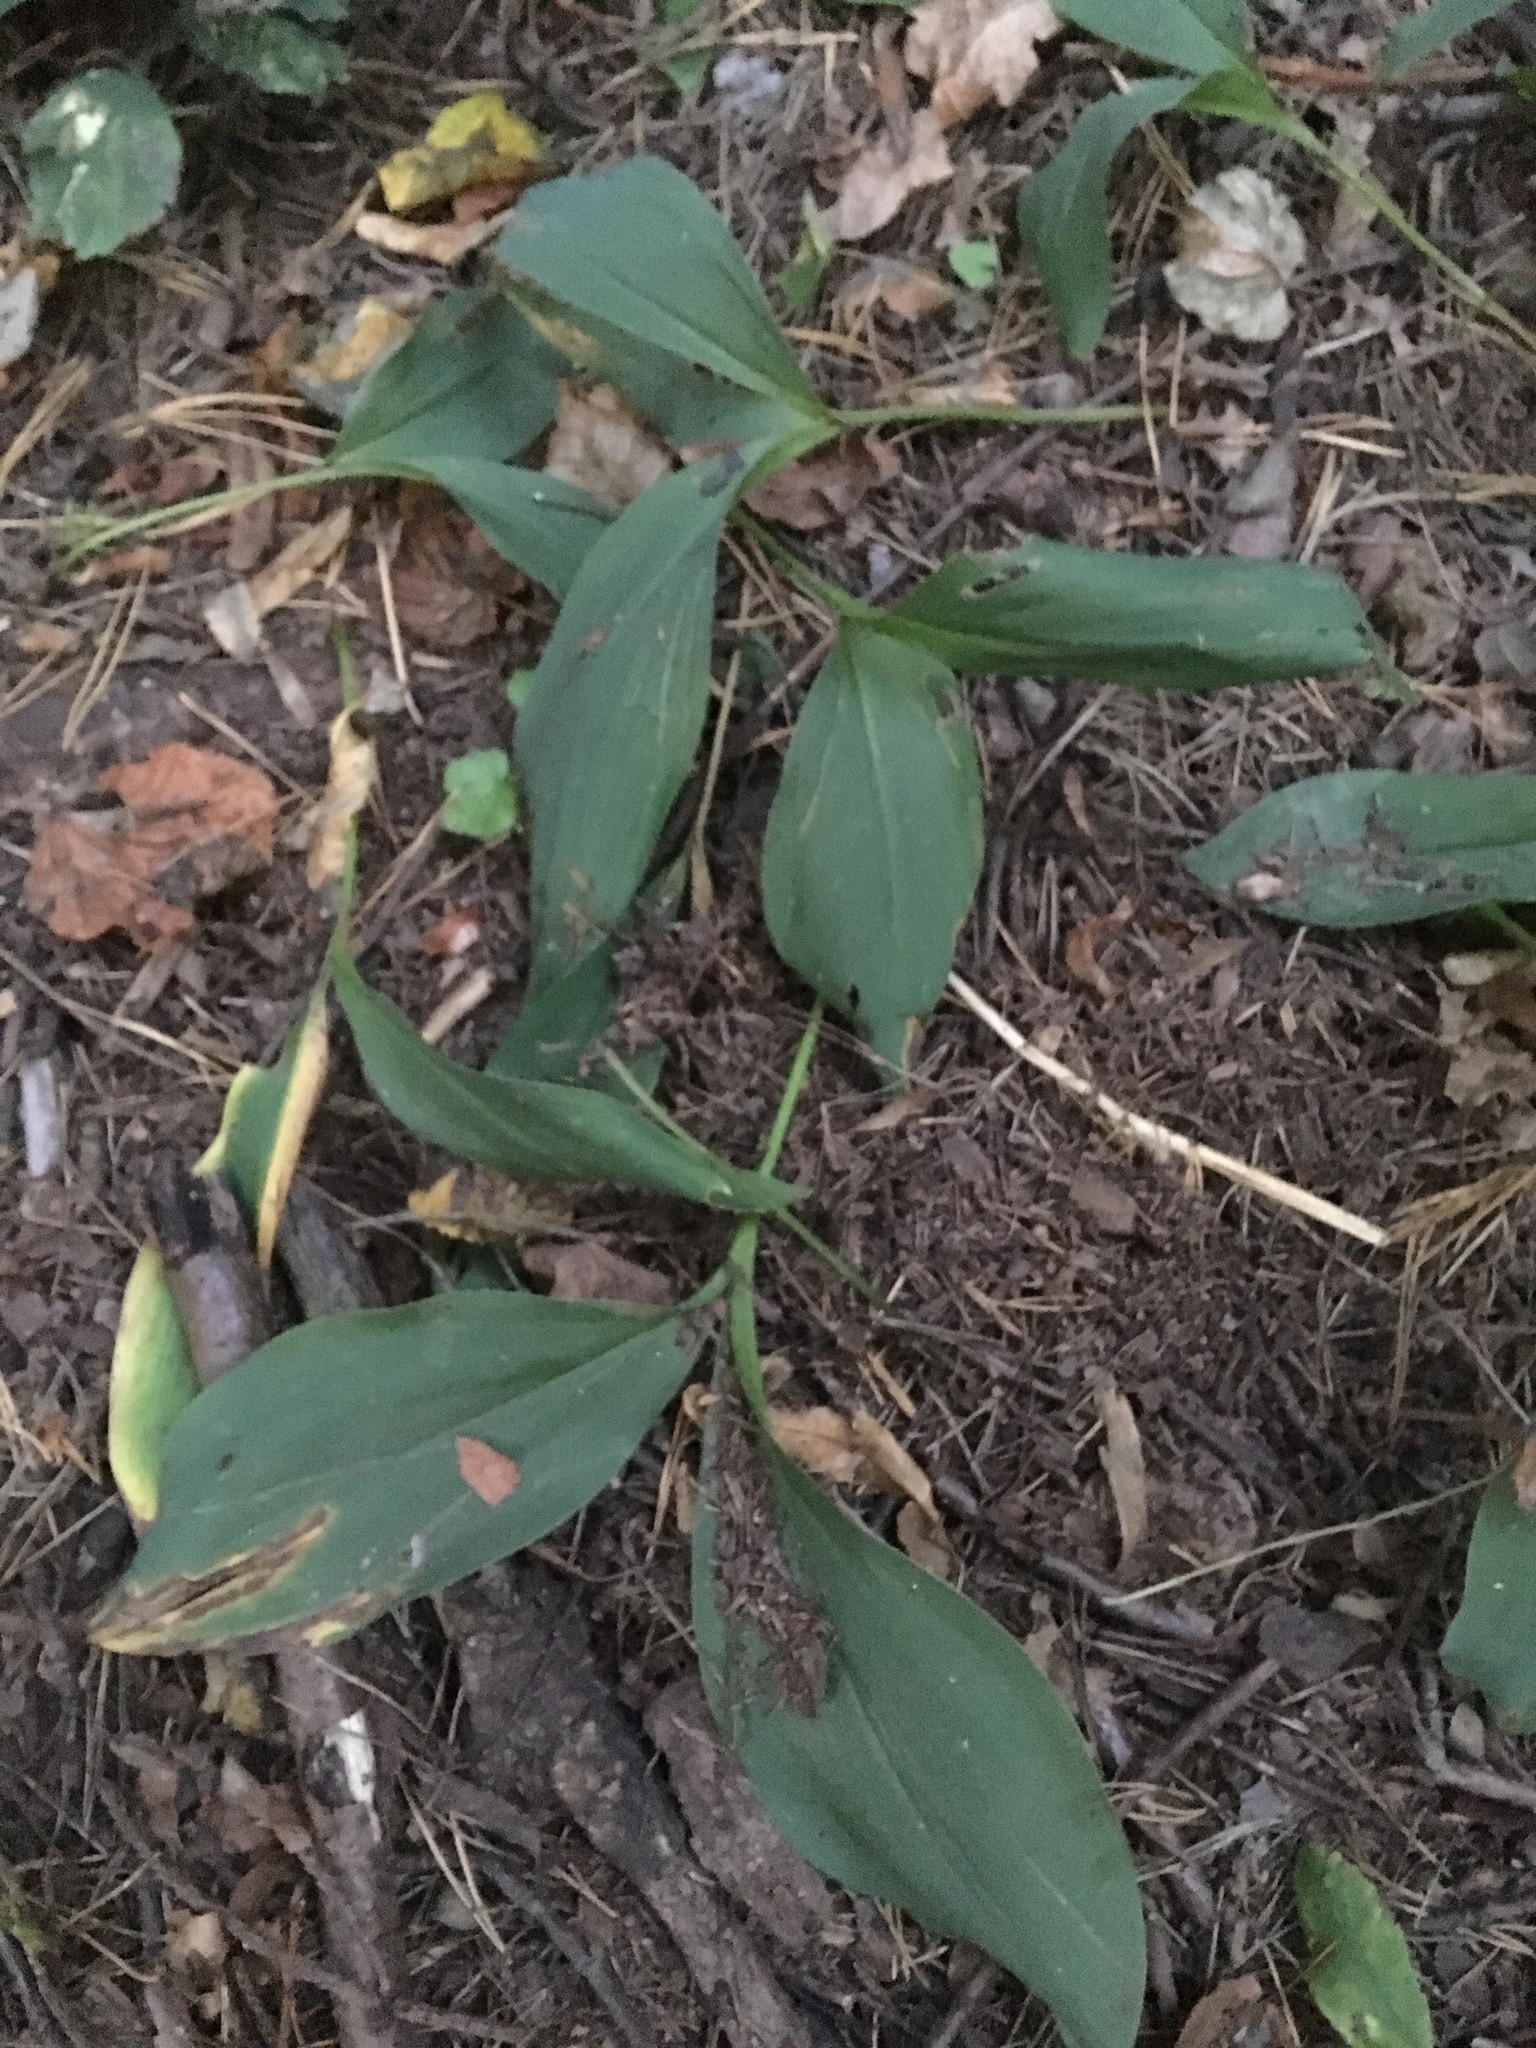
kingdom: Plantae
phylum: Tracheophyta
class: Liliopsida
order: Asparagales
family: Asparagaceae
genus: Convallaria
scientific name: Convallaria majalis
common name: Lily-of-the-valley
